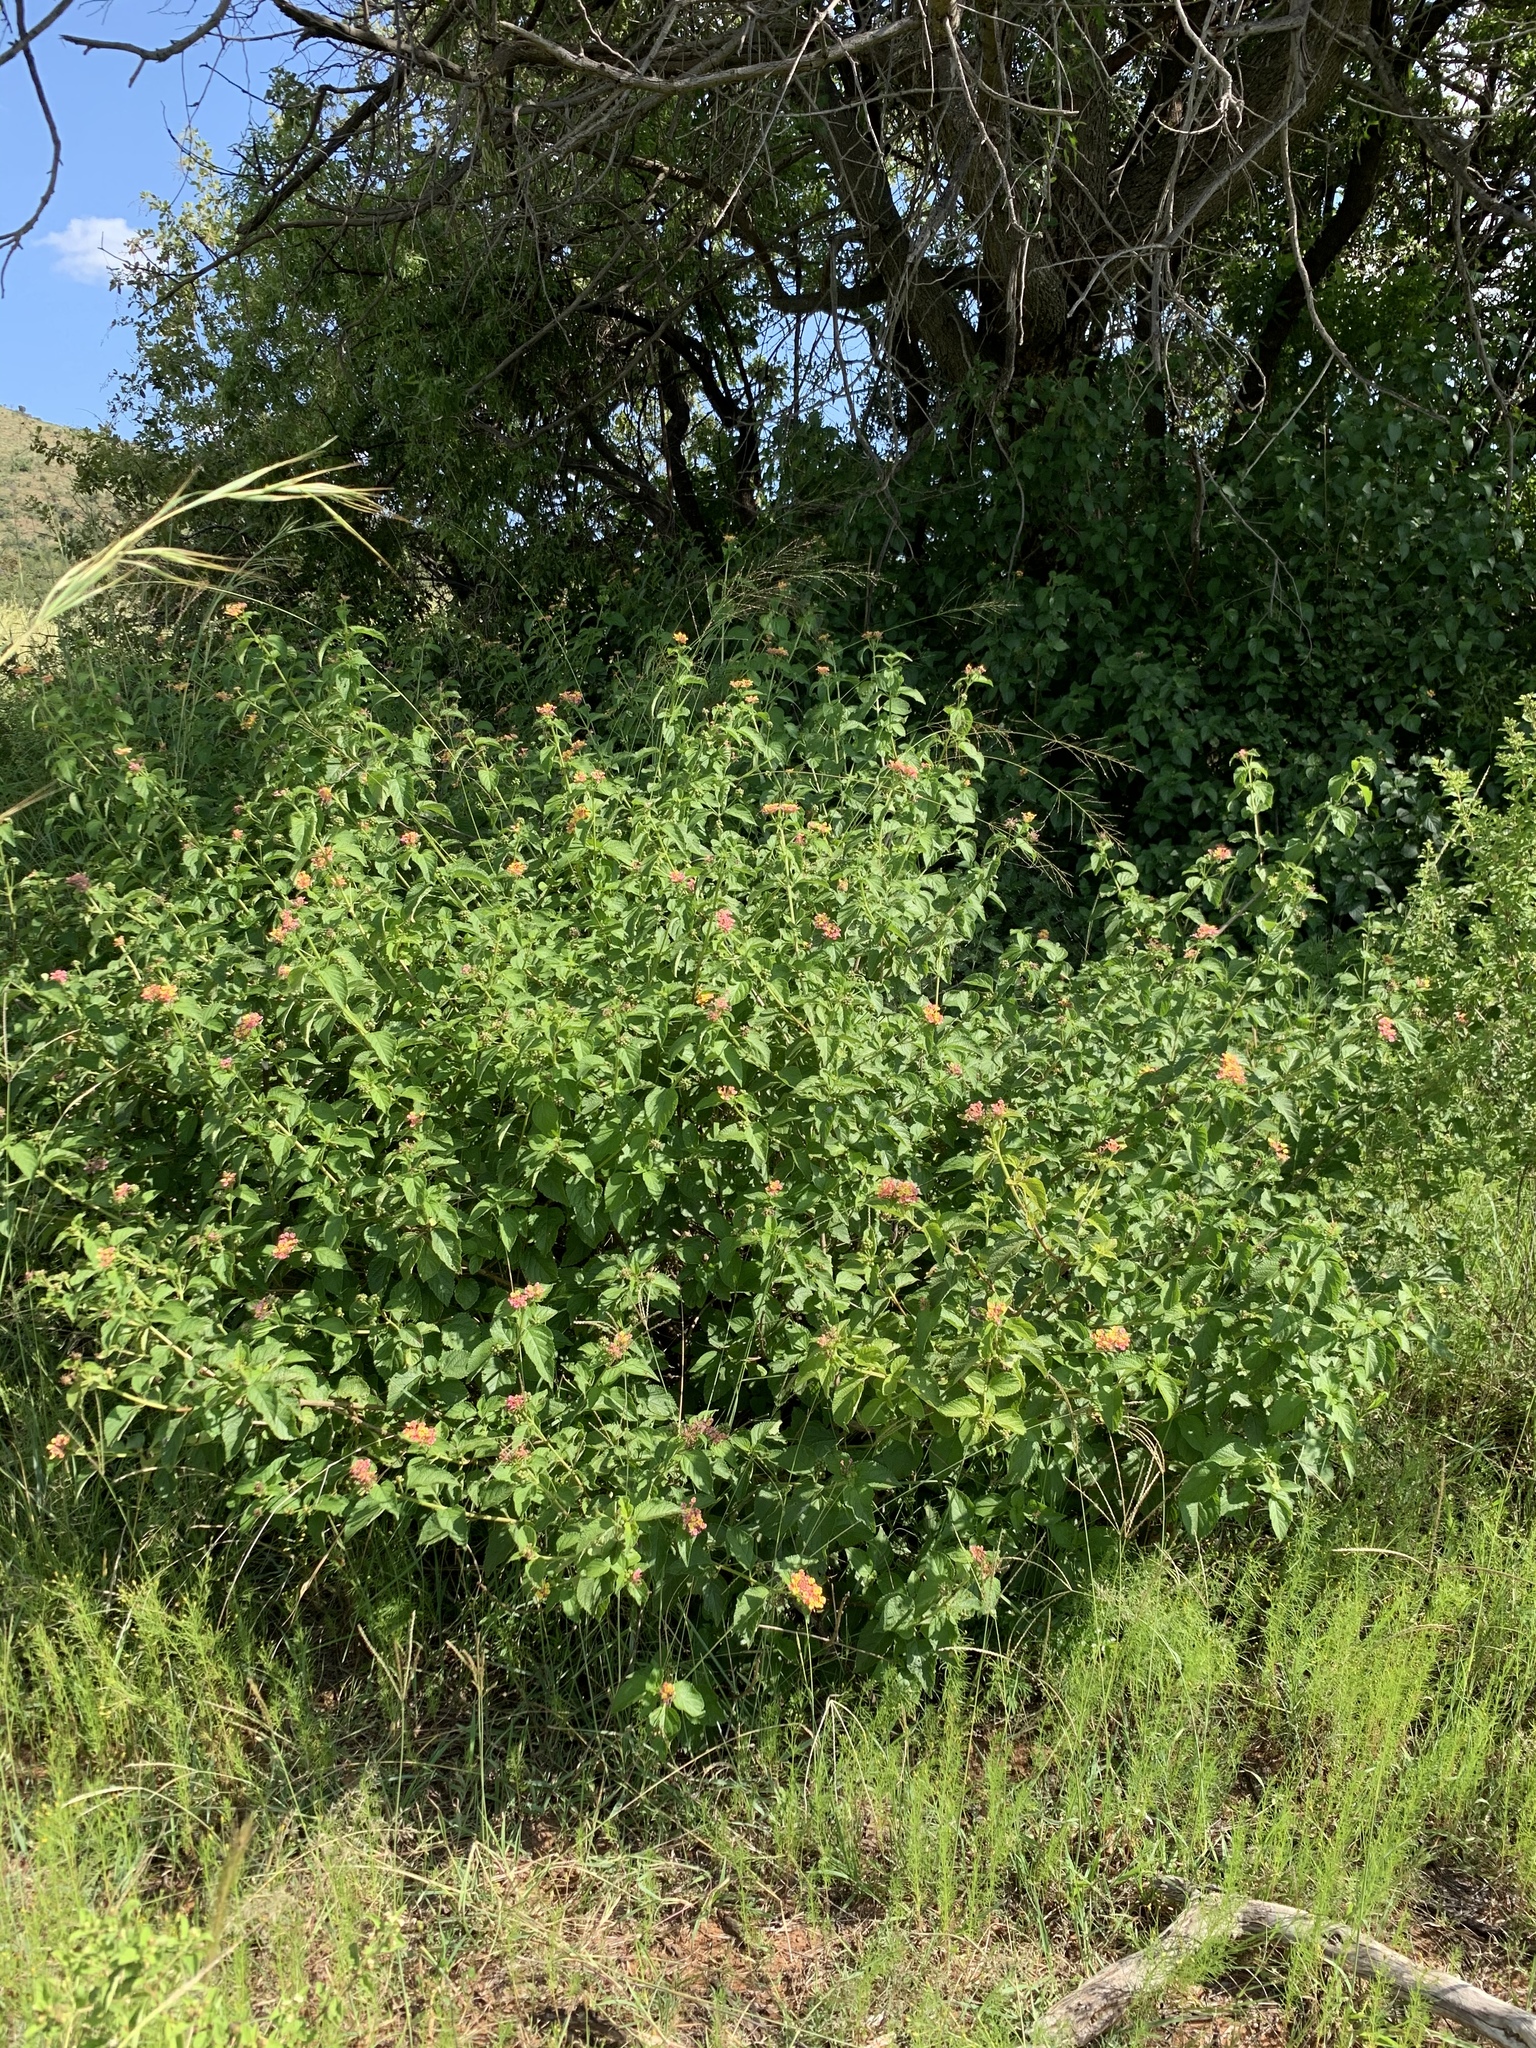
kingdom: Plantae
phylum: Tracheophyta
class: Magnoliopsida
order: Lamiales
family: Verbenaceae
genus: Lantana
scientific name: Lantana camara
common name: Lantana
